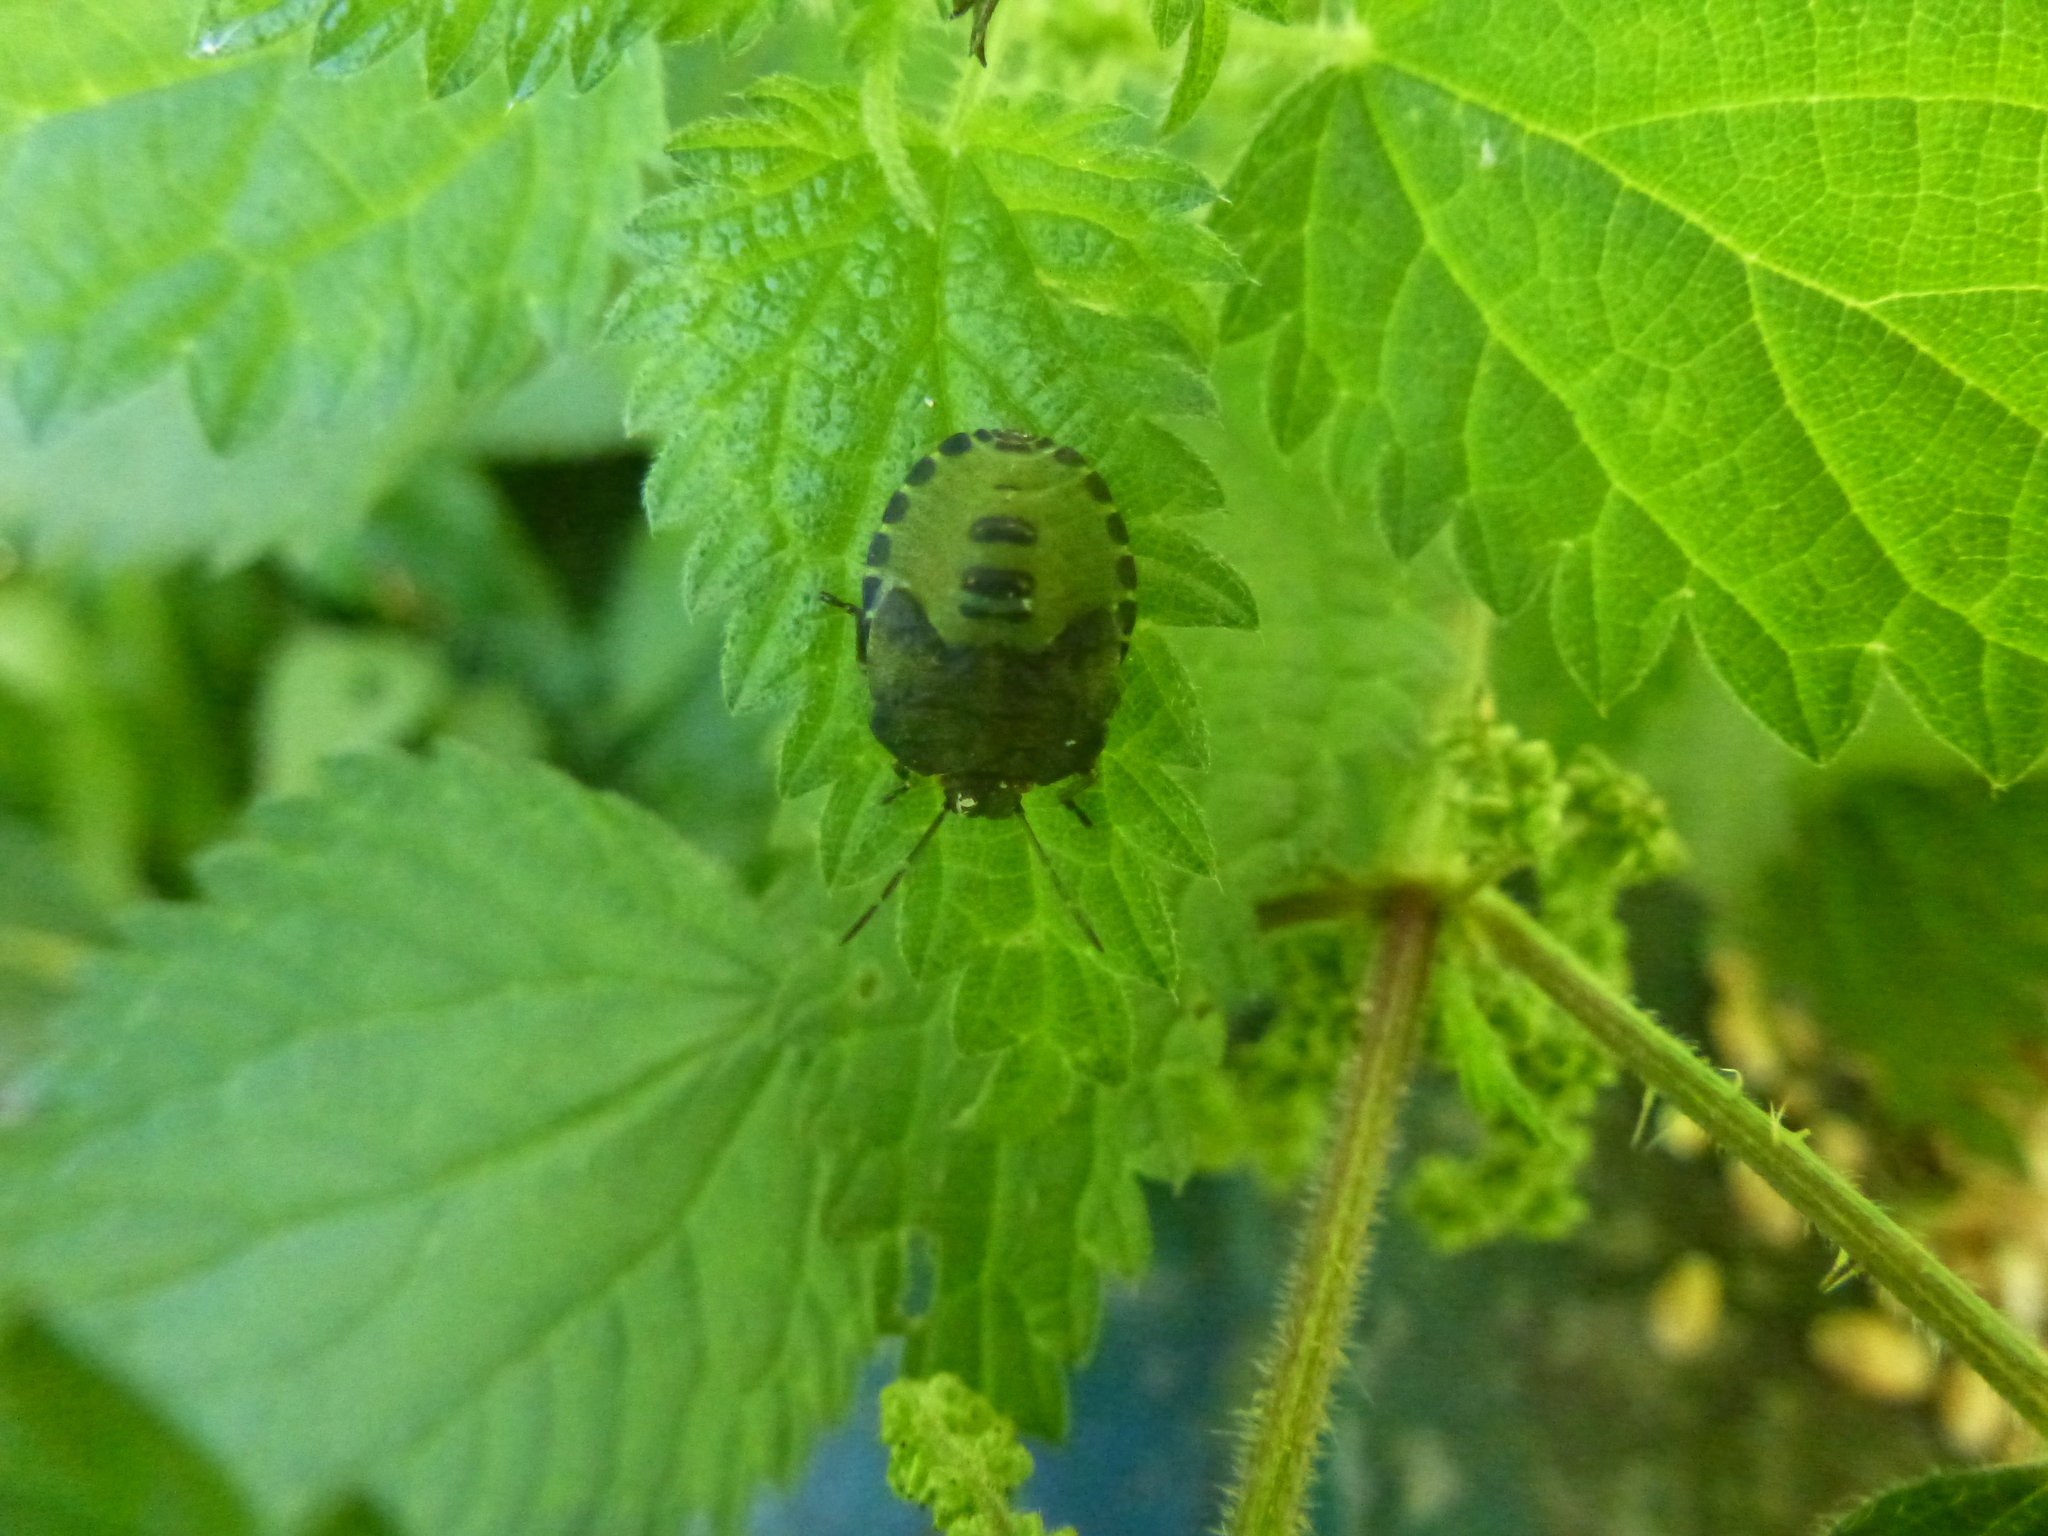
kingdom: Animalia
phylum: Arthropoda
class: Insecta
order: Hemiptera
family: Pentatomidae
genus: Palomena
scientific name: Palomena prasina
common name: Green shieldbug
